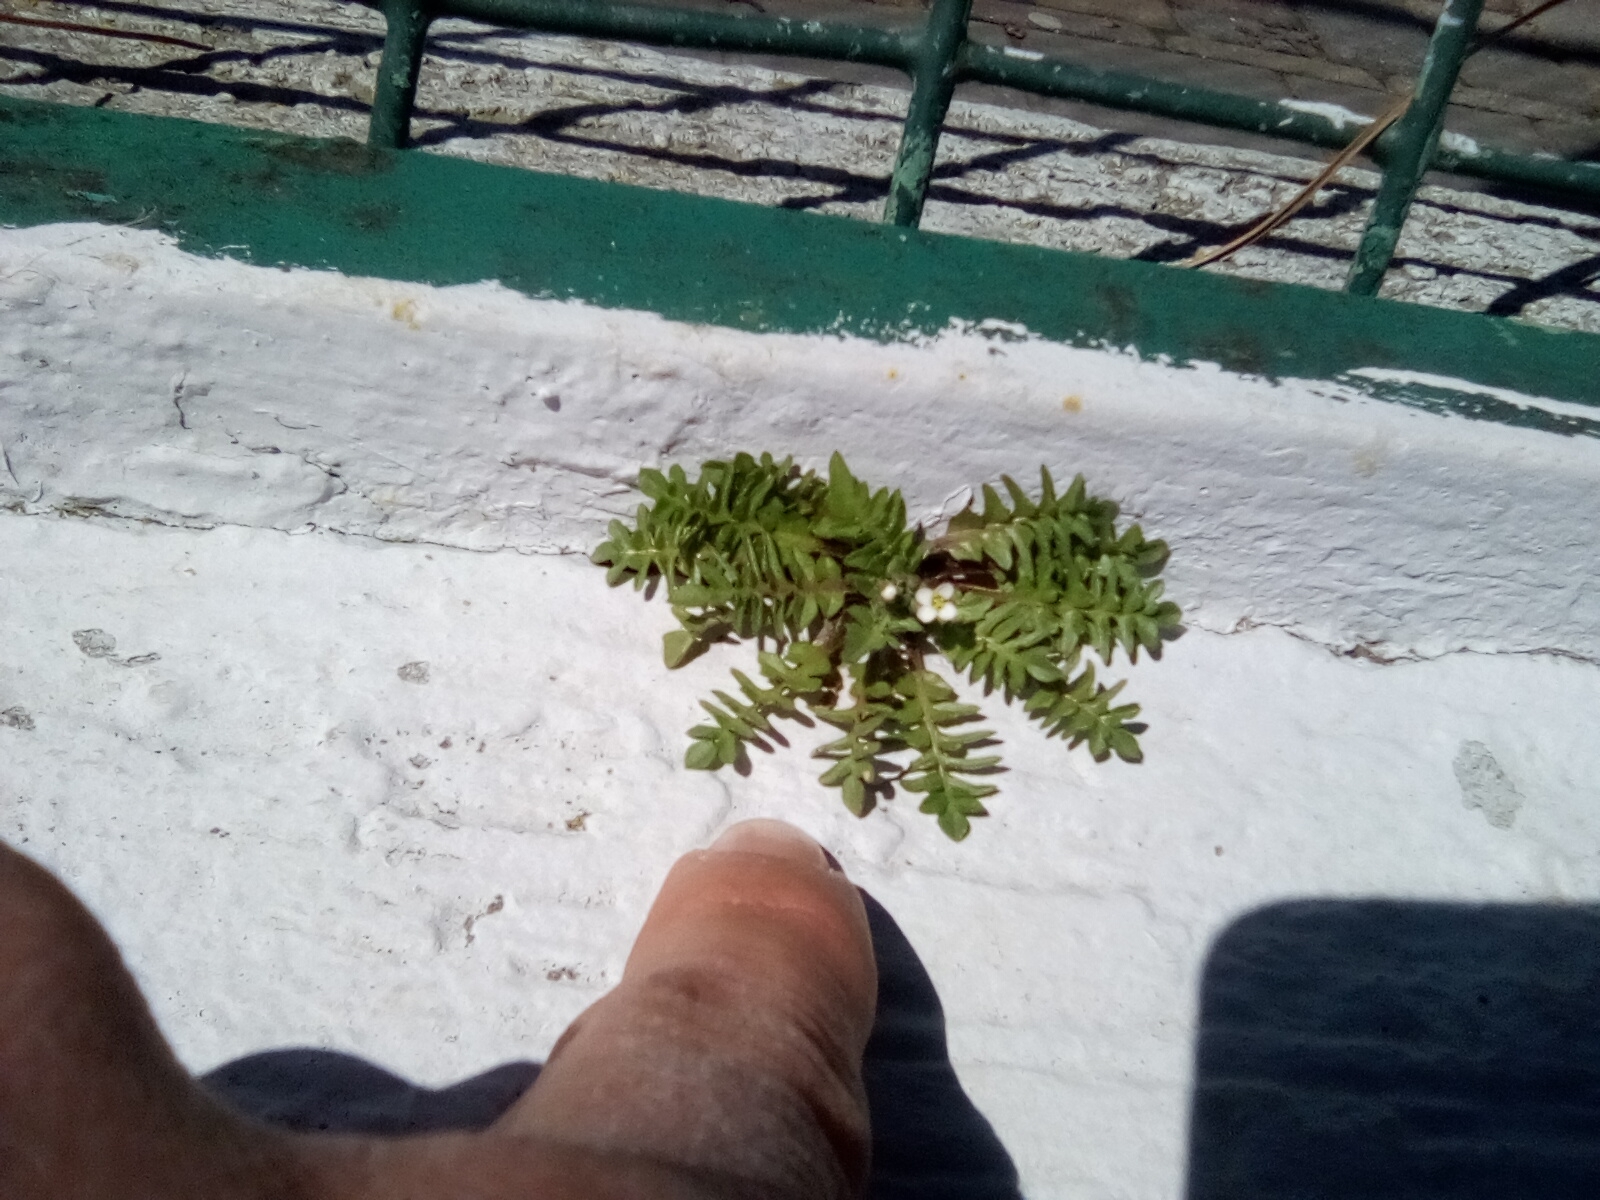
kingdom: Plantae
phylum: Tracheophyta
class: Magnoliopsida
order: Brassicales
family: Brassicaceae
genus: Capsella
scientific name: Capsella bursa-pastoris
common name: Shepherd's purse
